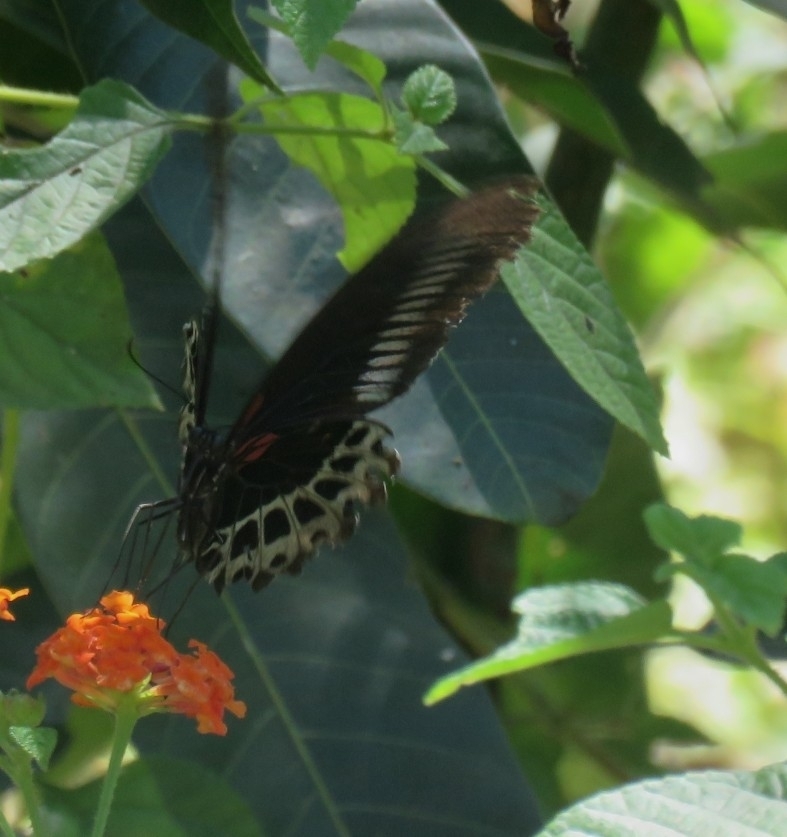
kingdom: Animalia
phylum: Arthropoda
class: Insecta
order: Lepidoptera
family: Papilionidae
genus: Papilio
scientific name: Papilio memnon
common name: Great mormon
